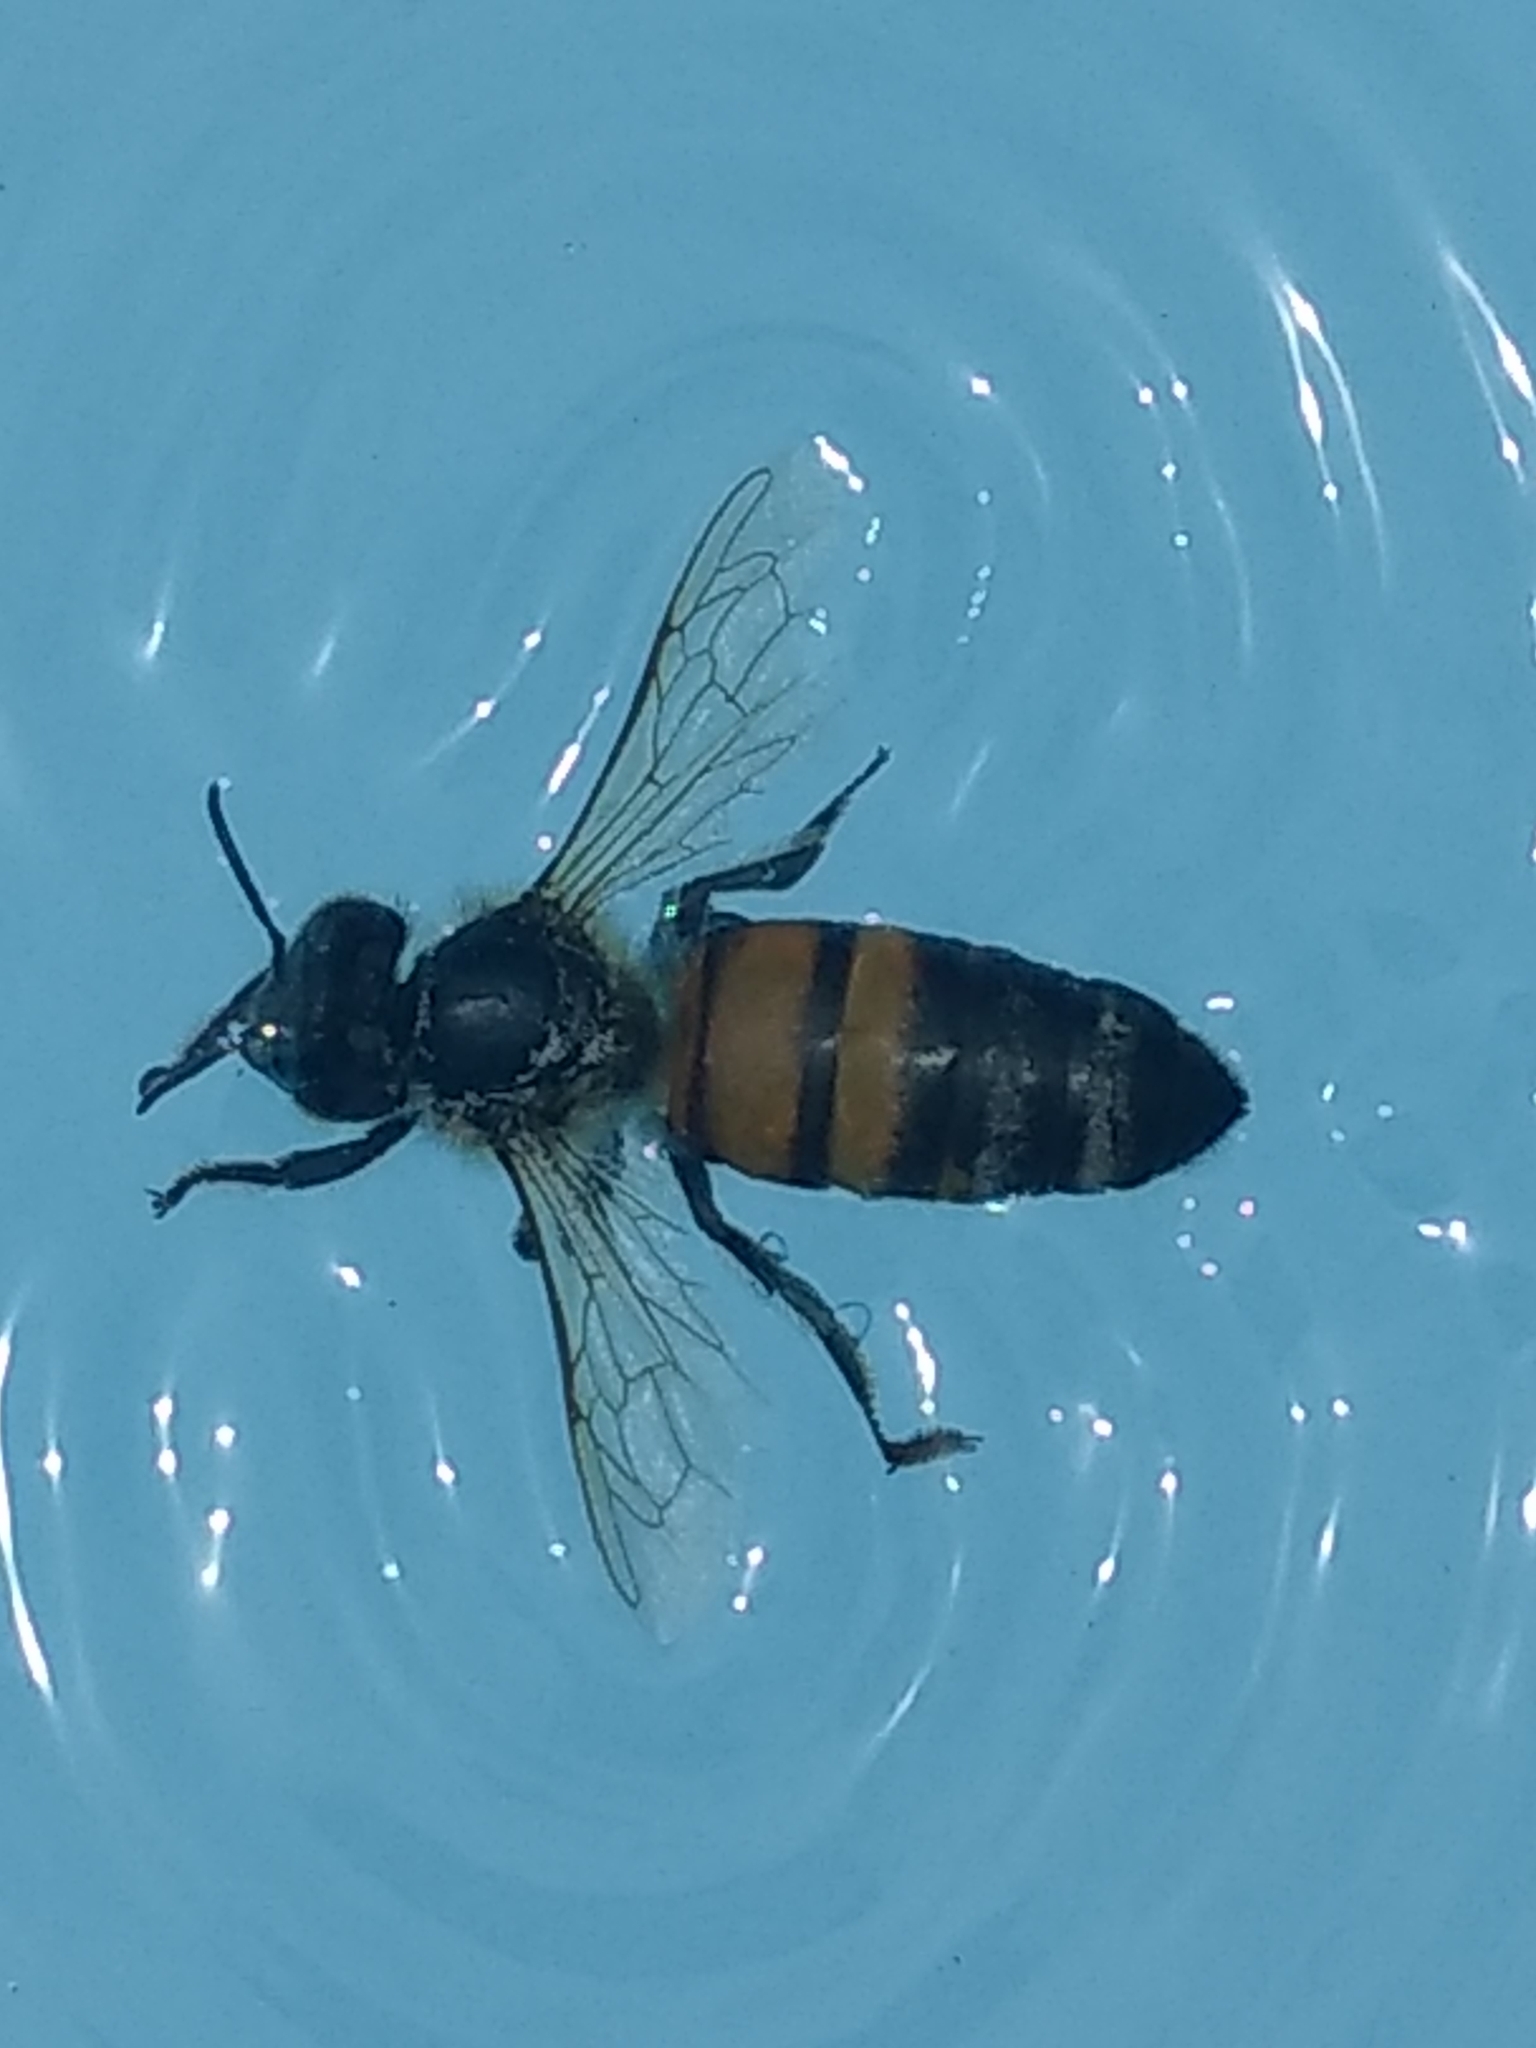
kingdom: Animalia
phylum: Arthropoda
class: Insecta
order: Hymenoptera
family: Apidae
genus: Apis
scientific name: Apis mellifera
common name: Honey bee
